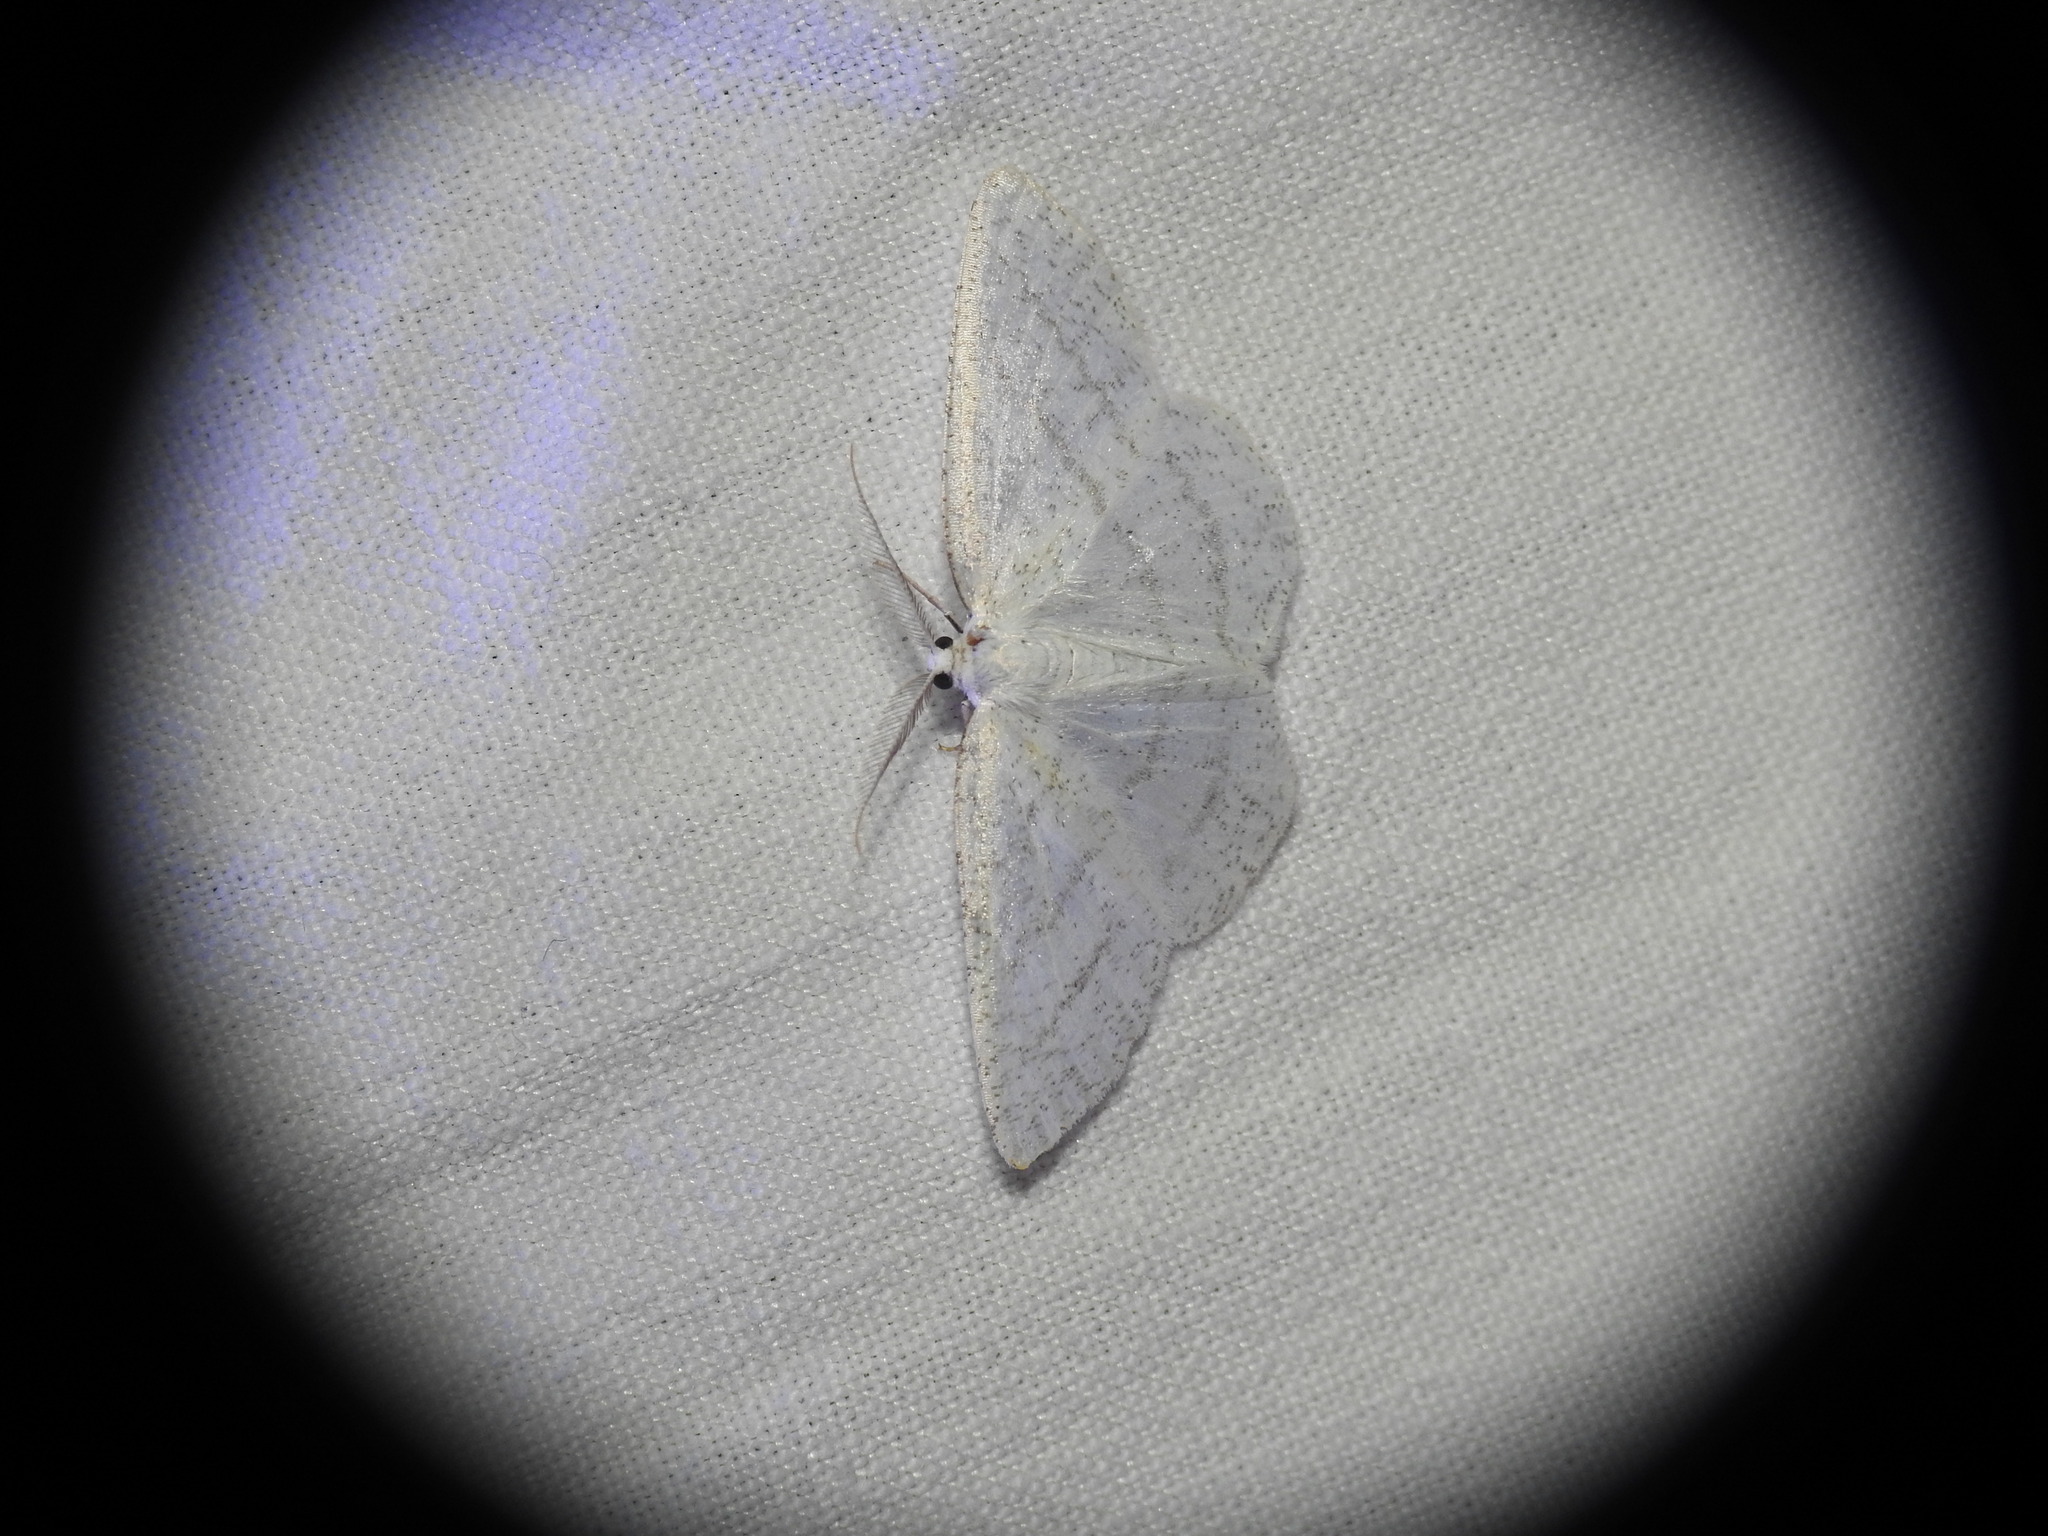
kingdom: Animalia
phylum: Arthropoda
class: Insecta
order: Lepidoptera
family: Geometridae
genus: Cabera
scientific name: Cabera pusaria
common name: Common white wave
